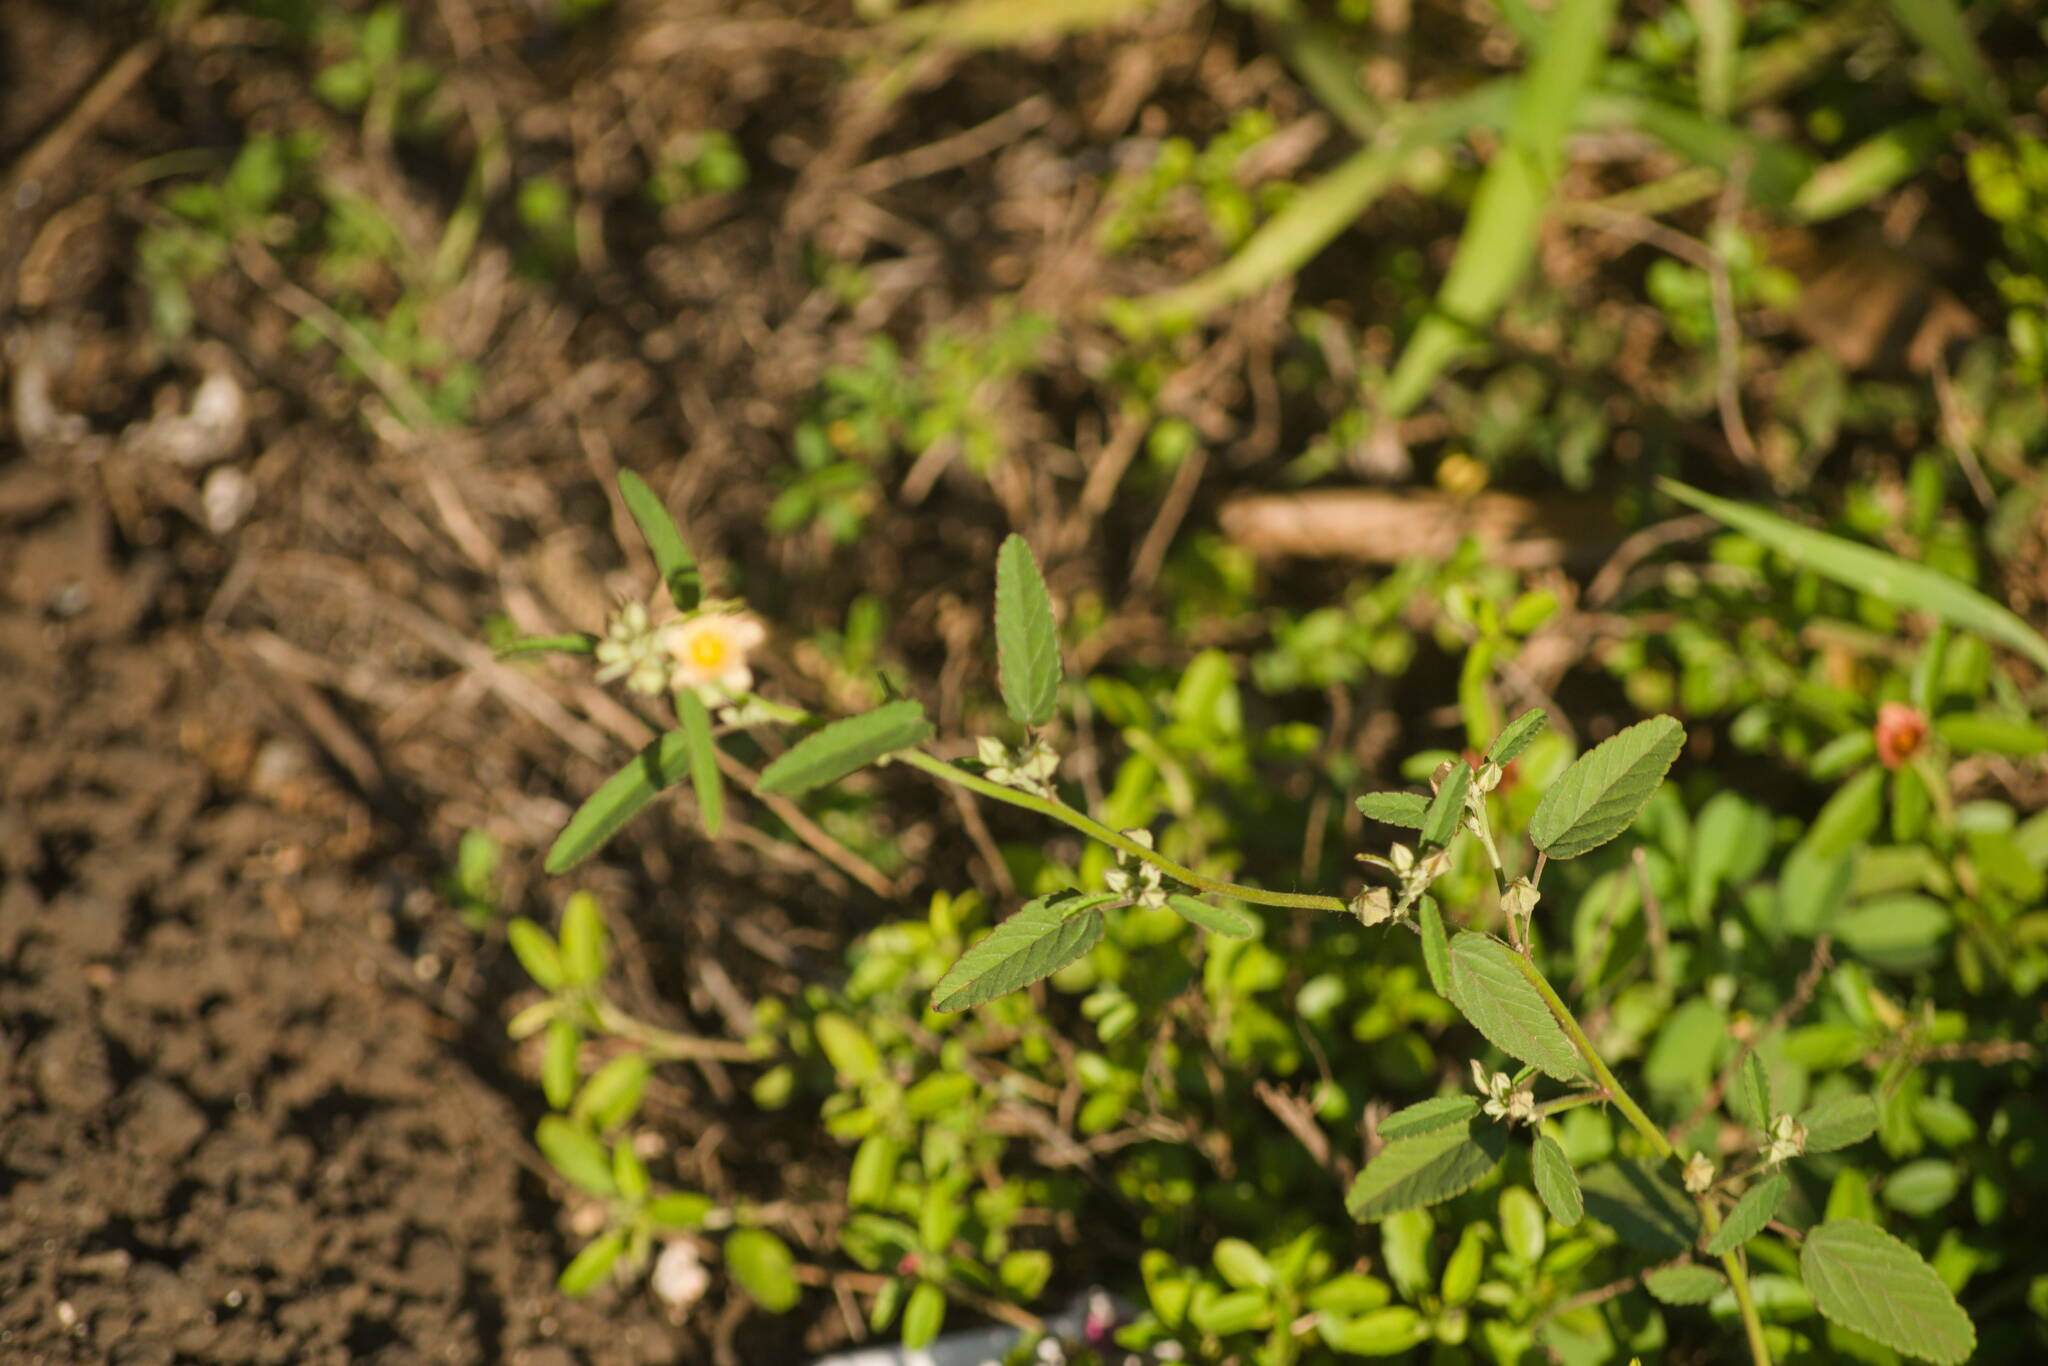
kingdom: Plantae
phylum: Tracheophyta
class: Magnoliopsida
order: Malvales
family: Malvaceae
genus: Sida
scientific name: Sida spinosa
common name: Prickly fanpetals
